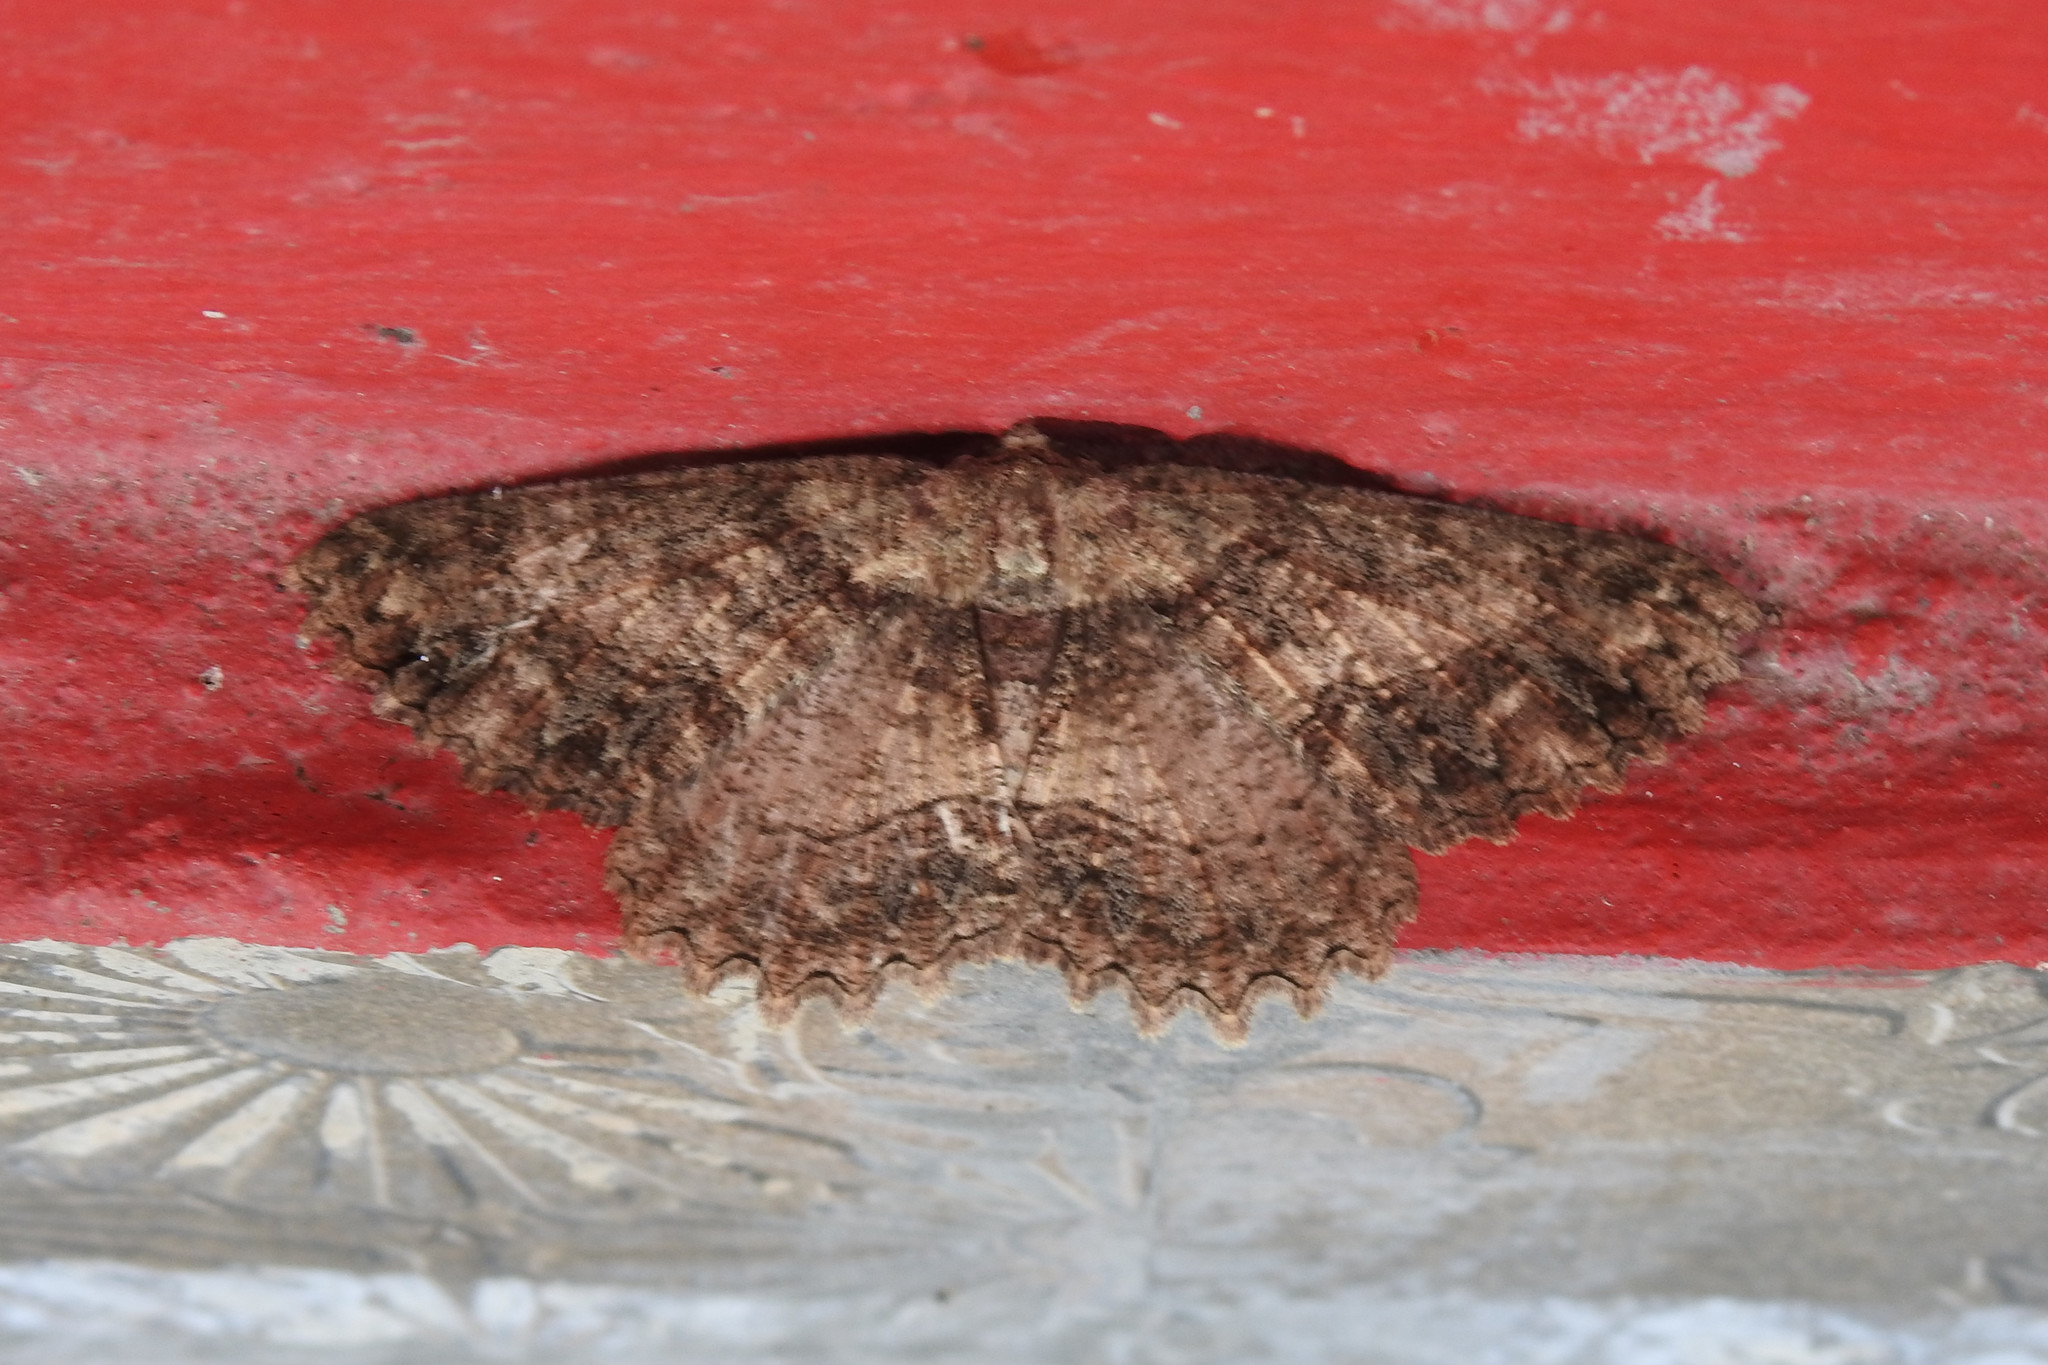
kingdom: Animalia
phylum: Arthropoda
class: Insecta
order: Lepidoptera
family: Geometridae
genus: Darisa
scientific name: Darisa firmilinea
